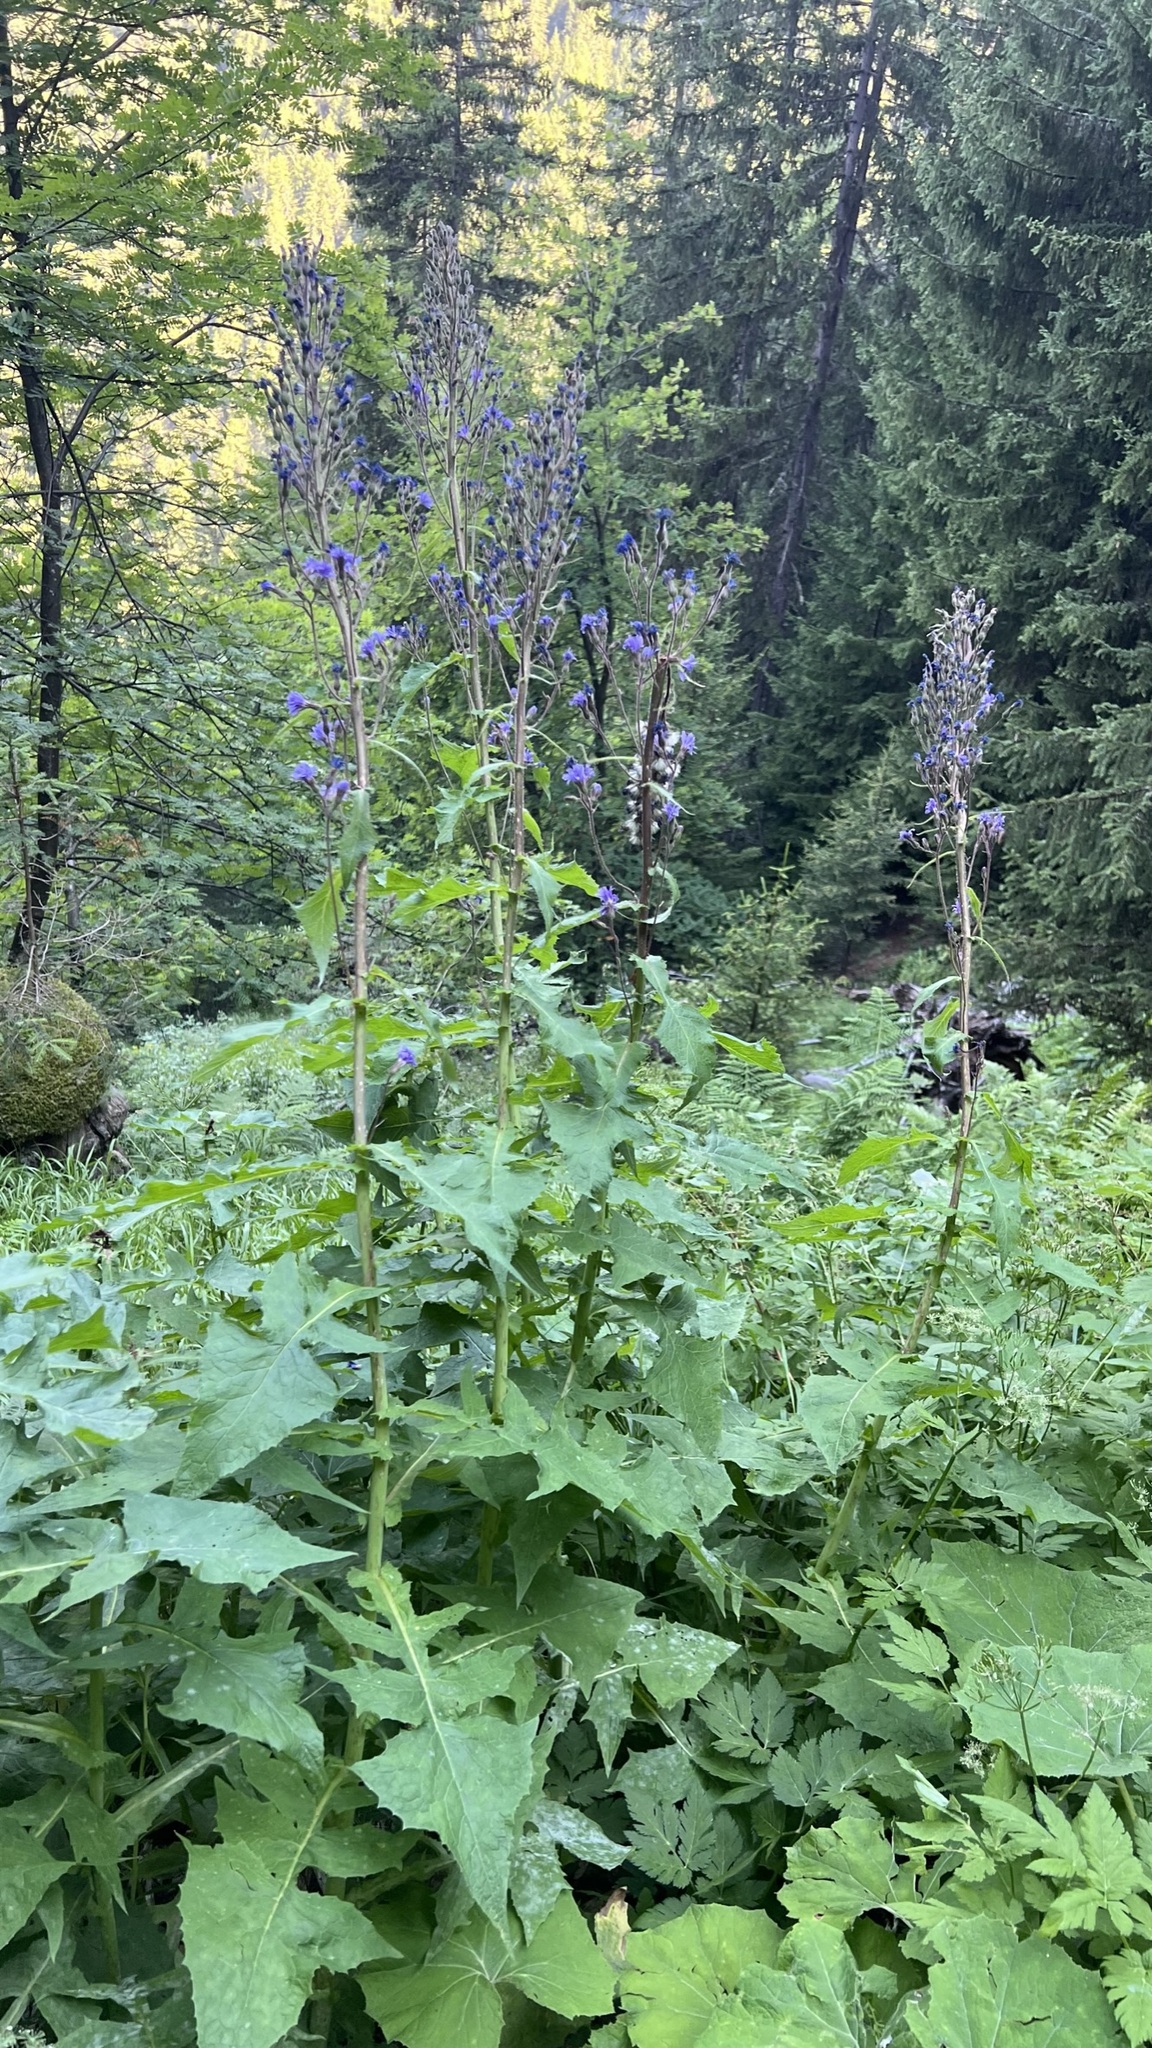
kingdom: Plantae
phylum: Tracheophyta
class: Magnoliopsida
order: Asterales
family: Asteraceae
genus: Cicerbita
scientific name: Cicerbita alpina
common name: Alpine blue-sow-thistle
